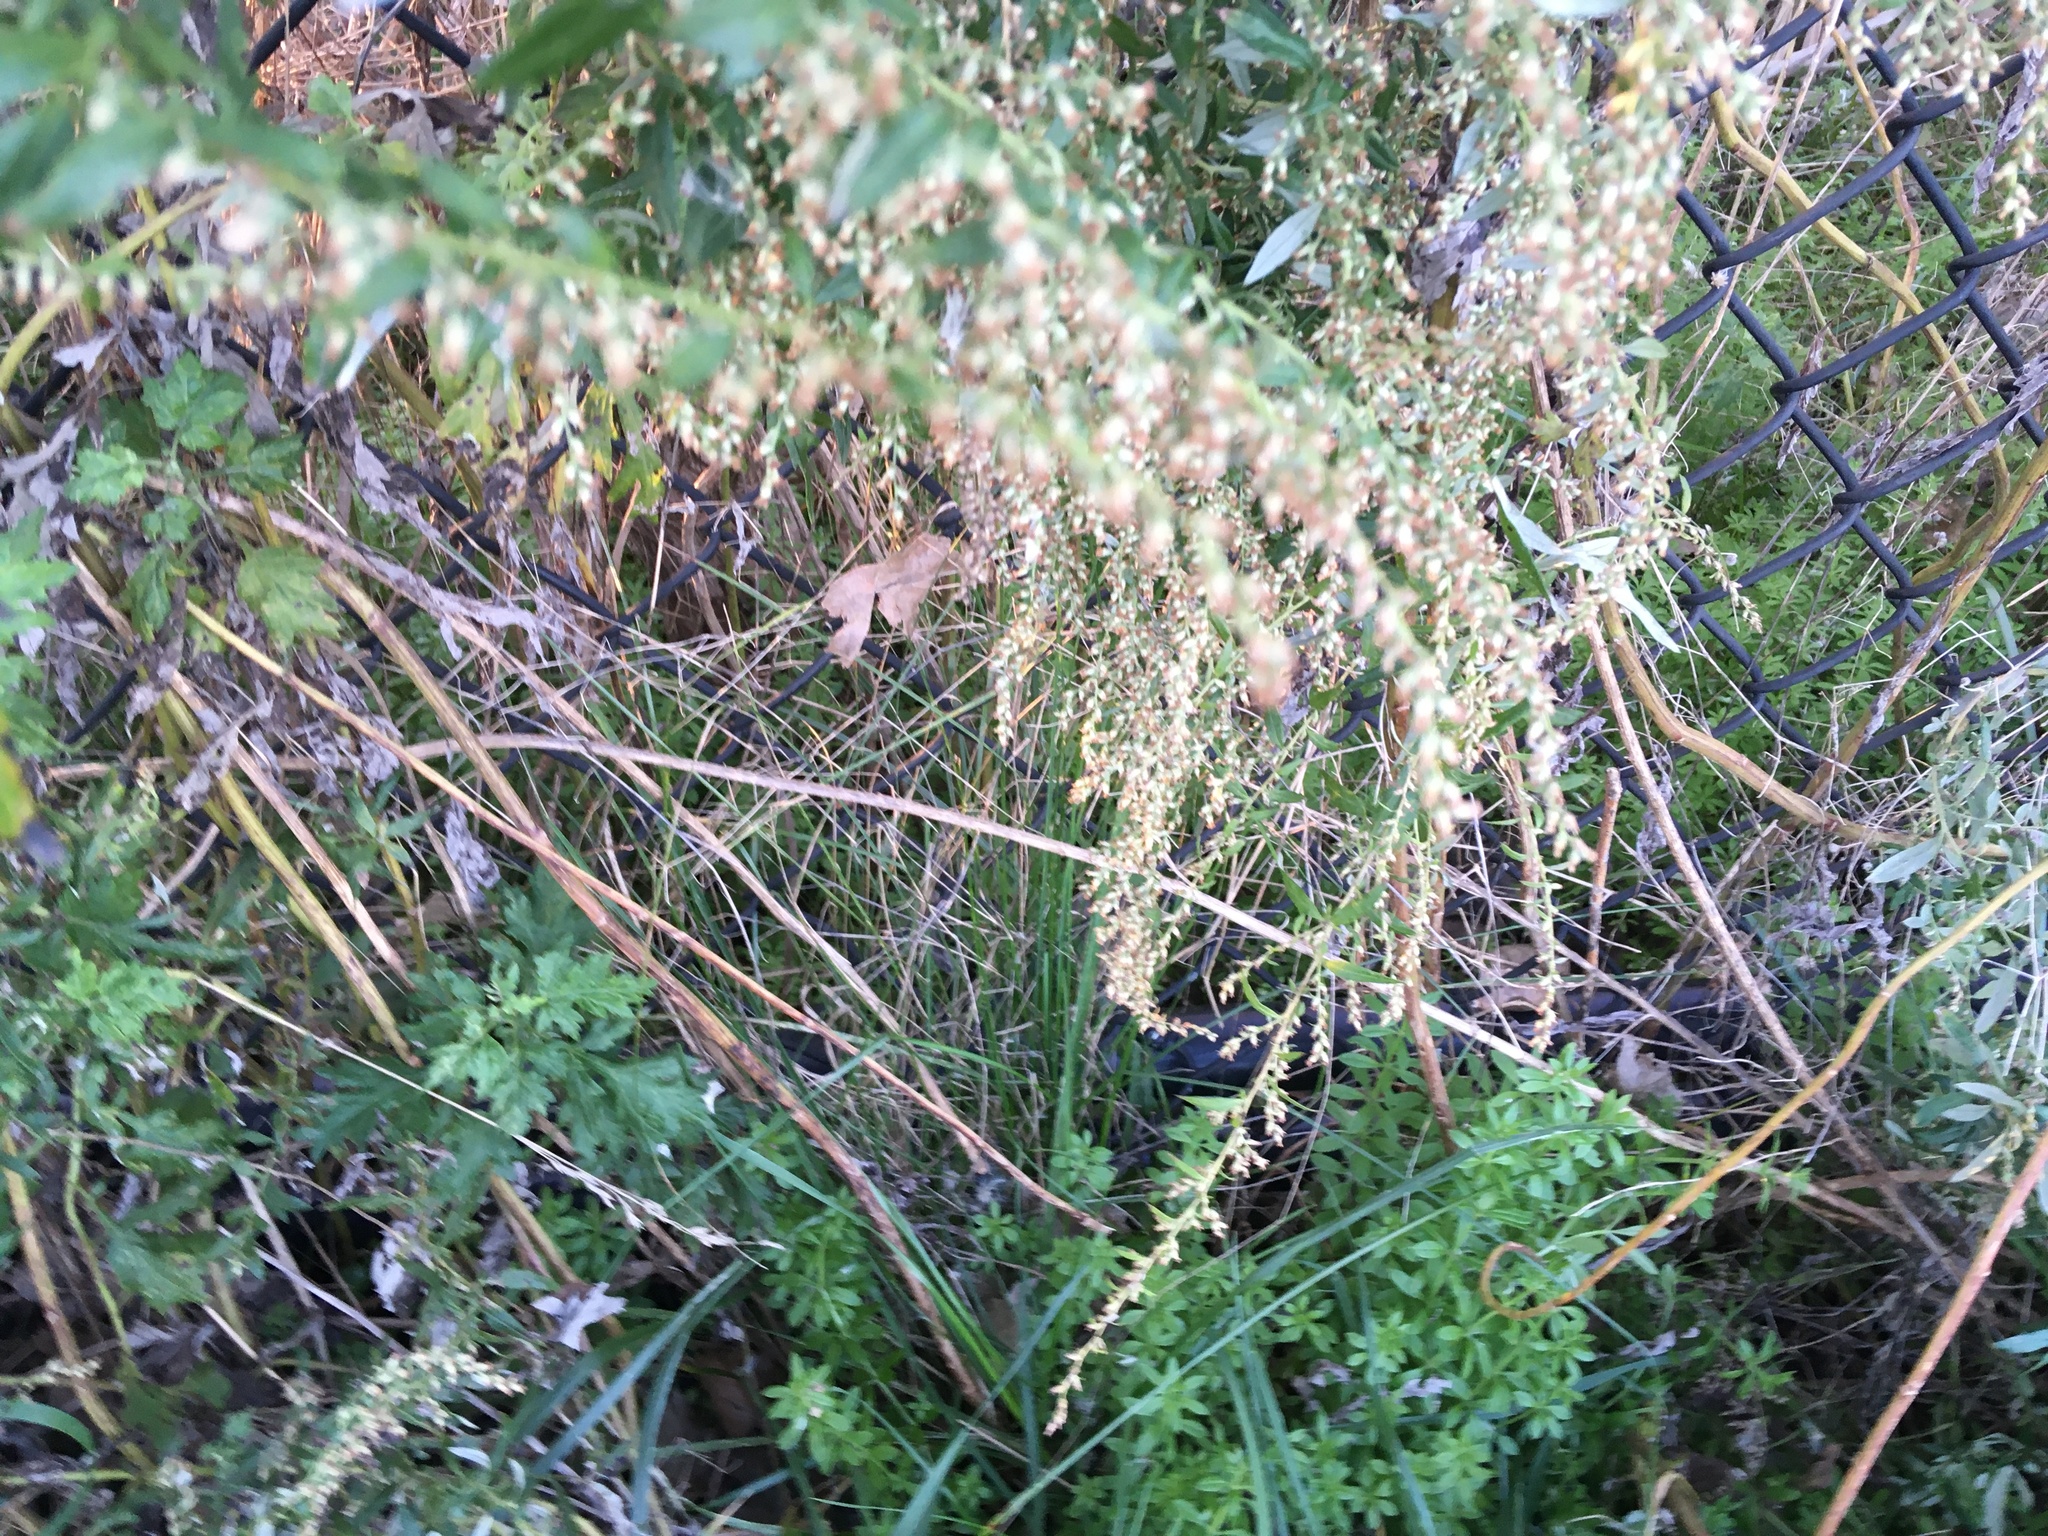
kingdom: Plantae
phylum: Tracheophyta
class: Magnoliopsida
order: Asterales
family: Asteraceae
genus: Artemisia
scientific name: Artemisia vulgaris
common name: Mugwort
